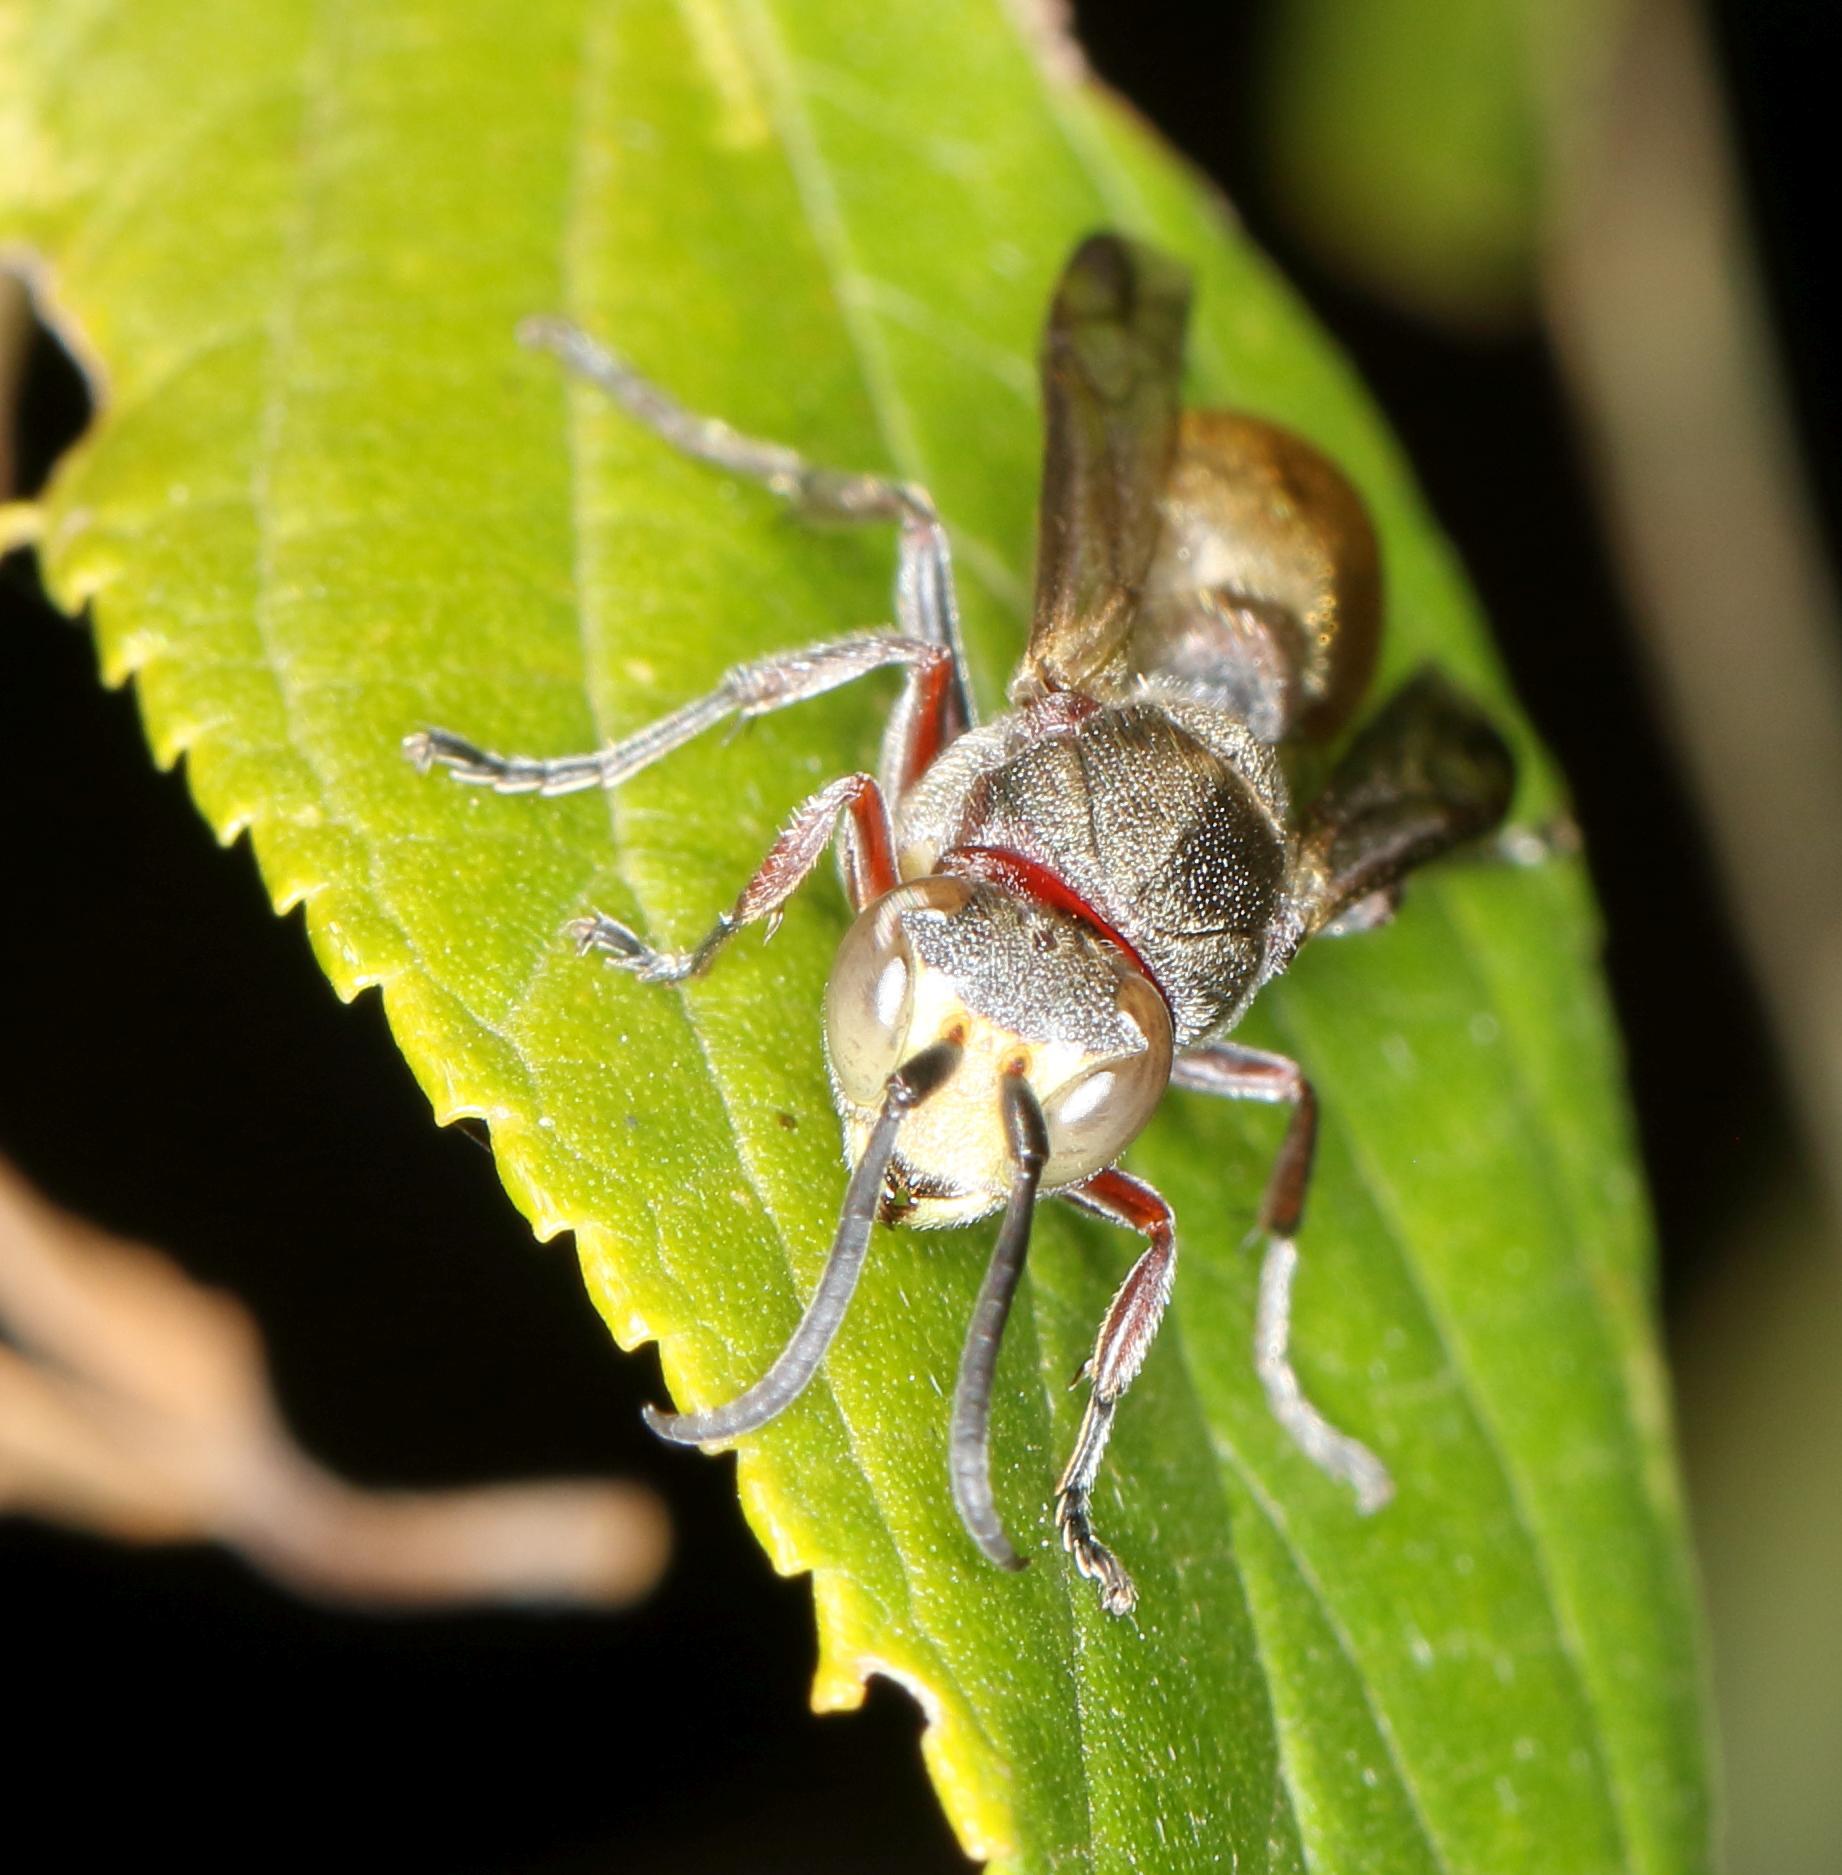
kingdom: Animalia
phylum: Arthropoda
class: Insecta
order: Hymenoptera
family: Vespidae
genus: Ropalidia
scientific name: Ropalidia tomentosa
